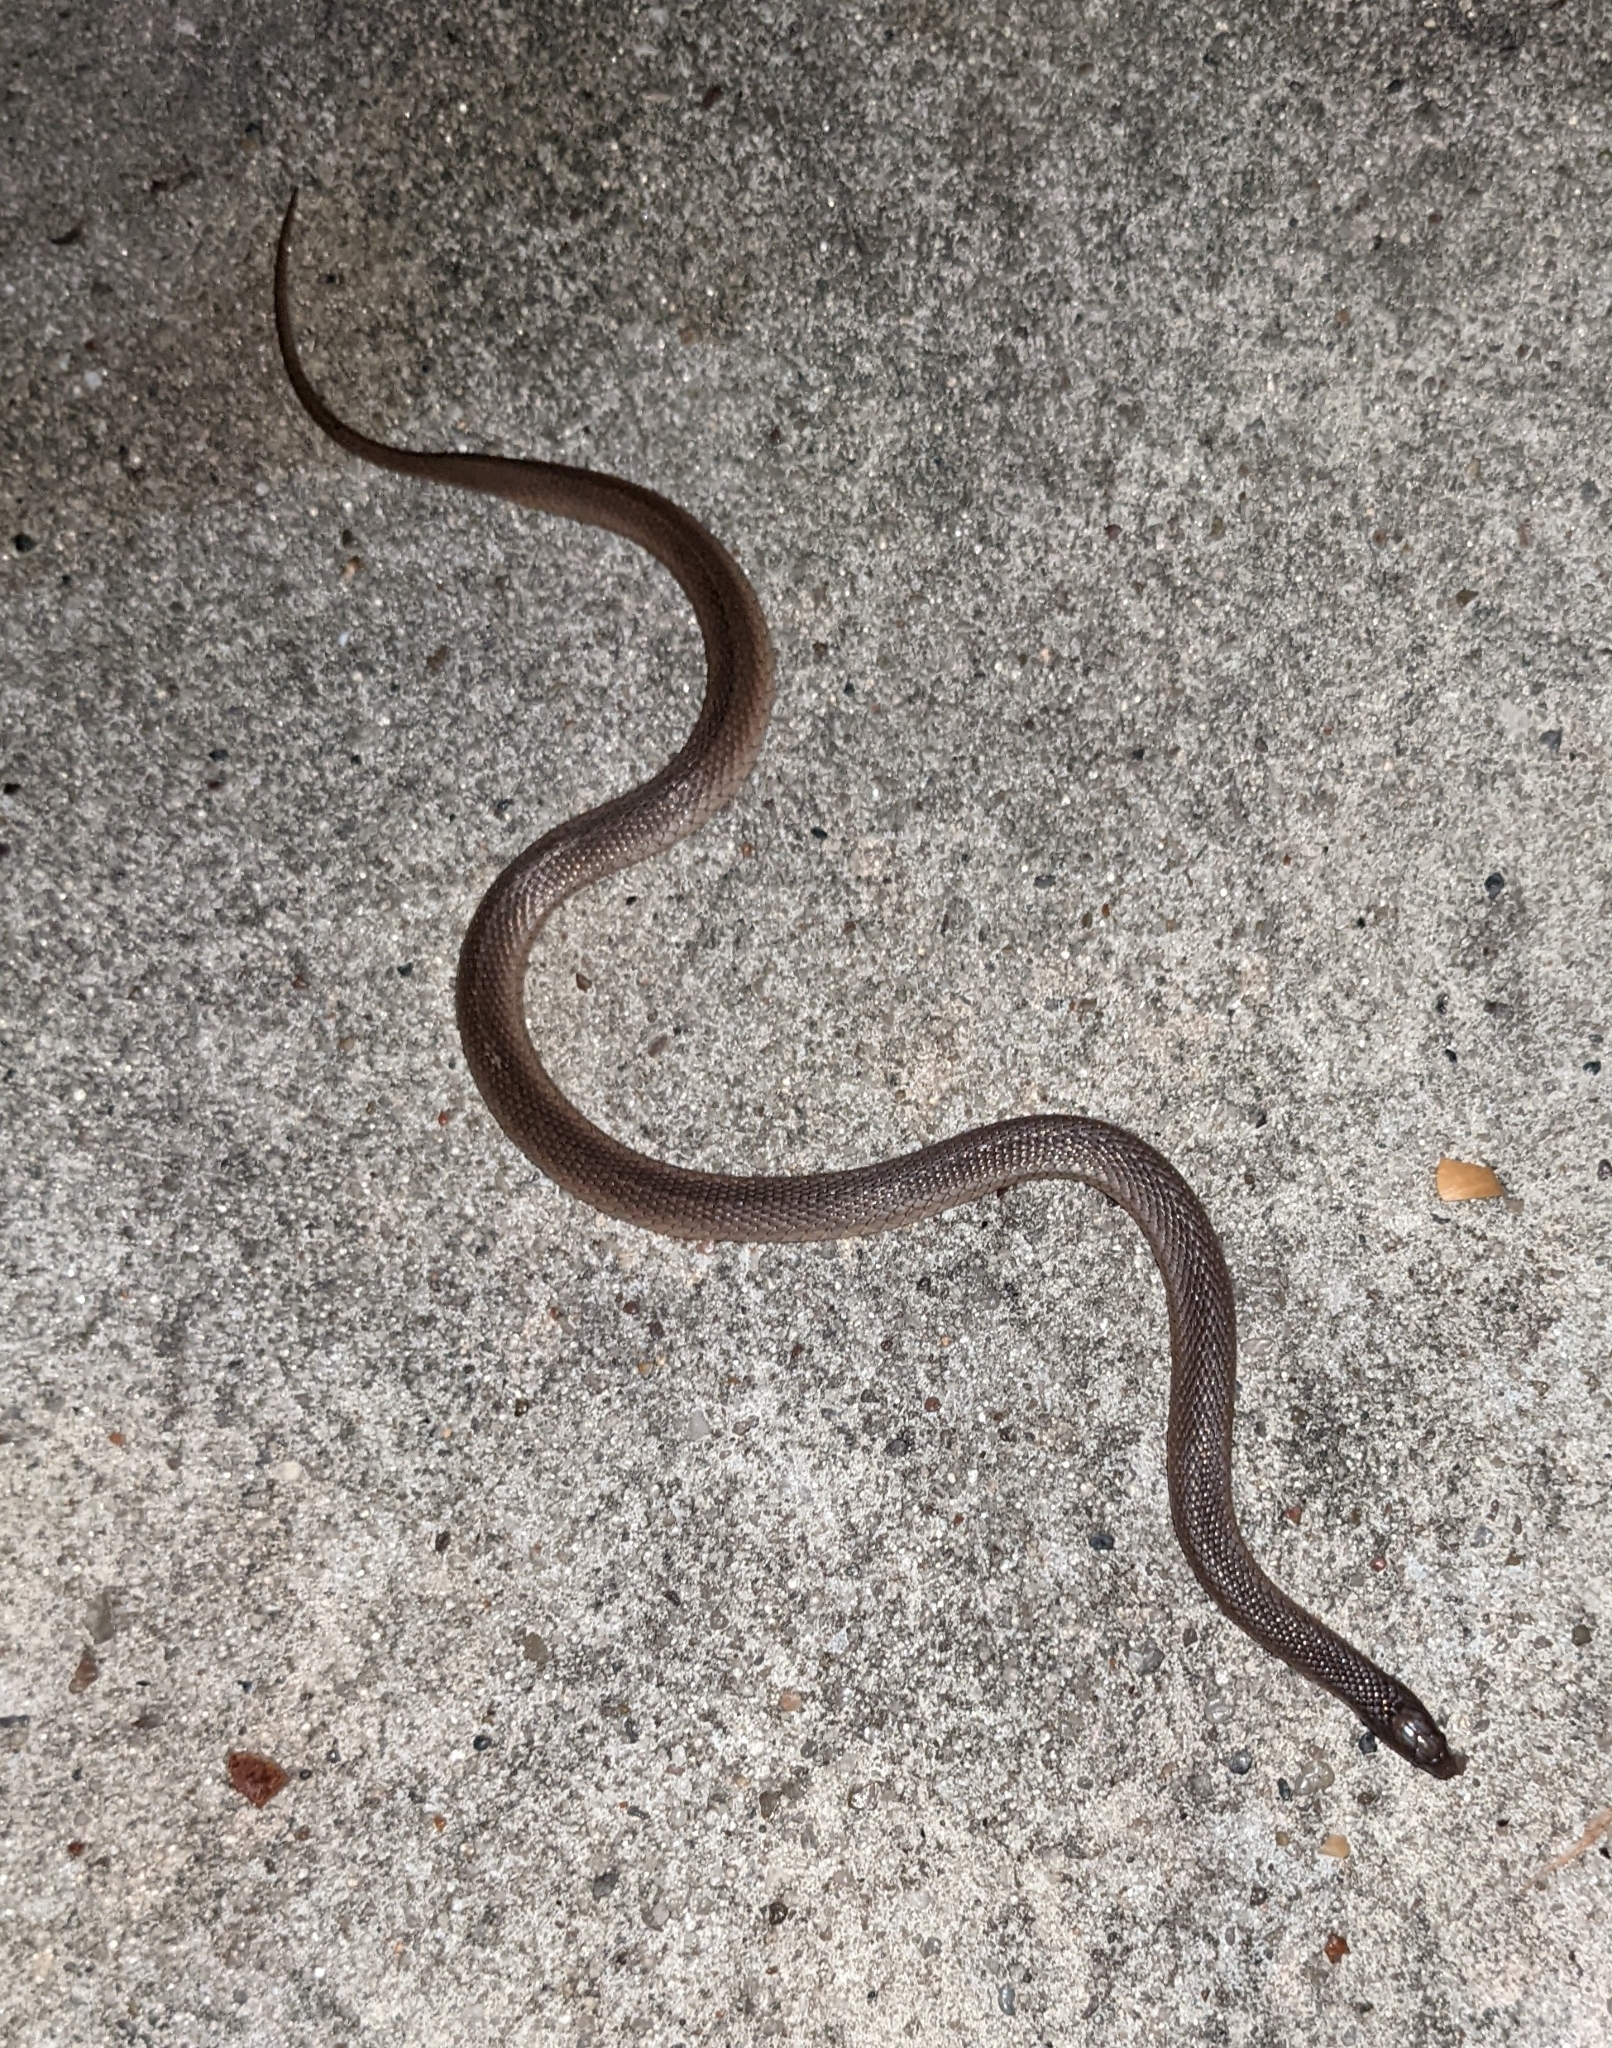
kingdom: Animalia
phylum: Chordata
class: Squamata
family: Colubridae
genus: Haldea
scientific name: Haldea striatula
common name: Rough earth snake
